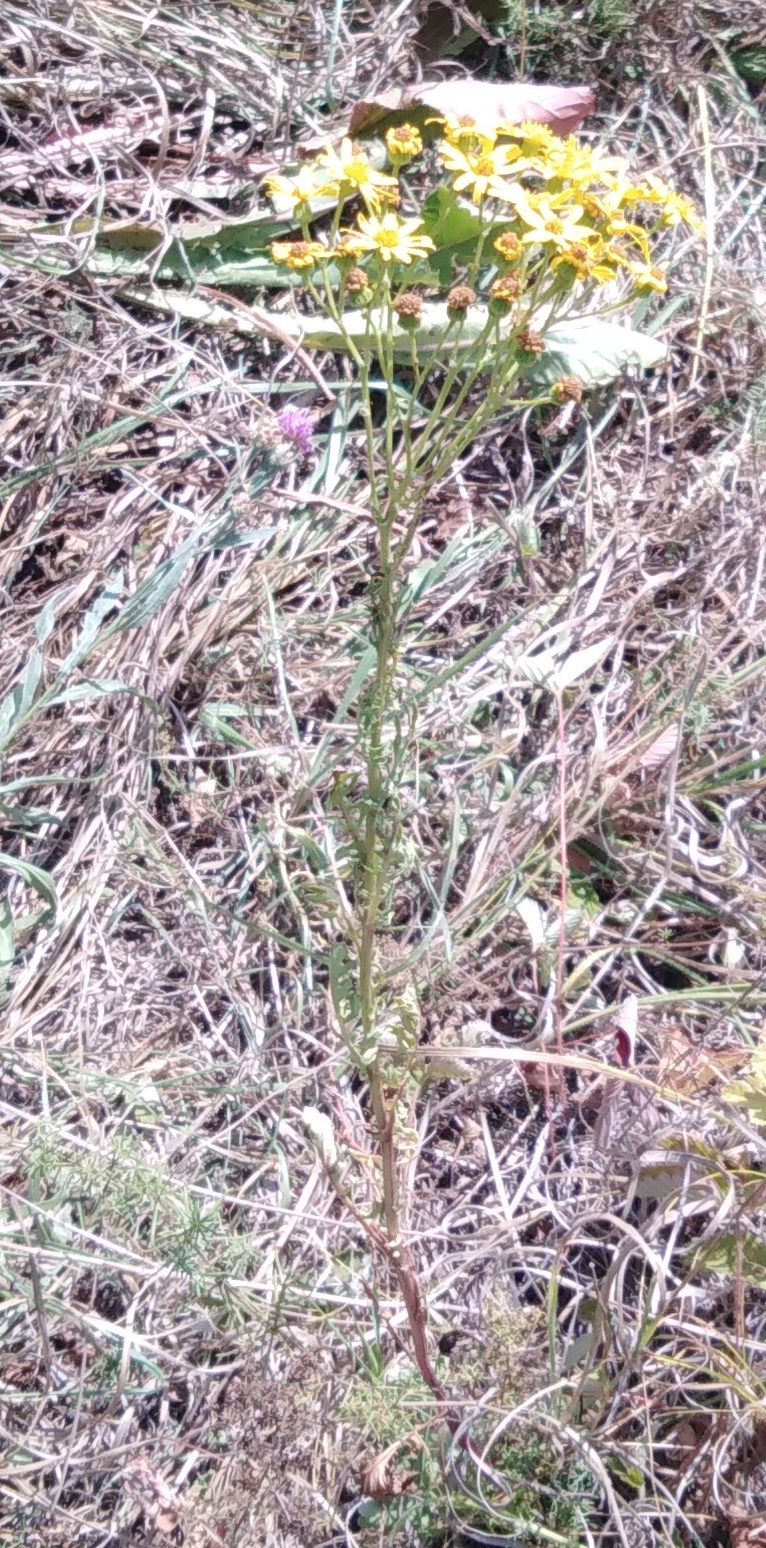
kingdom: Plantae
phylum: Tracheophyta
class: Magnoliopsida
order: Asterales
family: Asteraceae
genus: Jacobaea
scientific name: Jacobaea vulgaris
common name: Stinking willie
